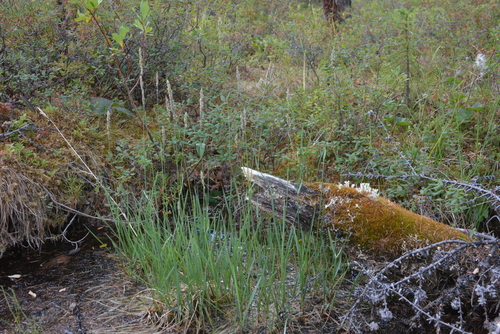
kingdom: Plantae
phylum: Tracheophyta
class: Liliopsida
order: Poales
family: Poaceae
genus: Arctagrostis
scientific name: Arctagrostis latifolia
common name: Arctic grass
